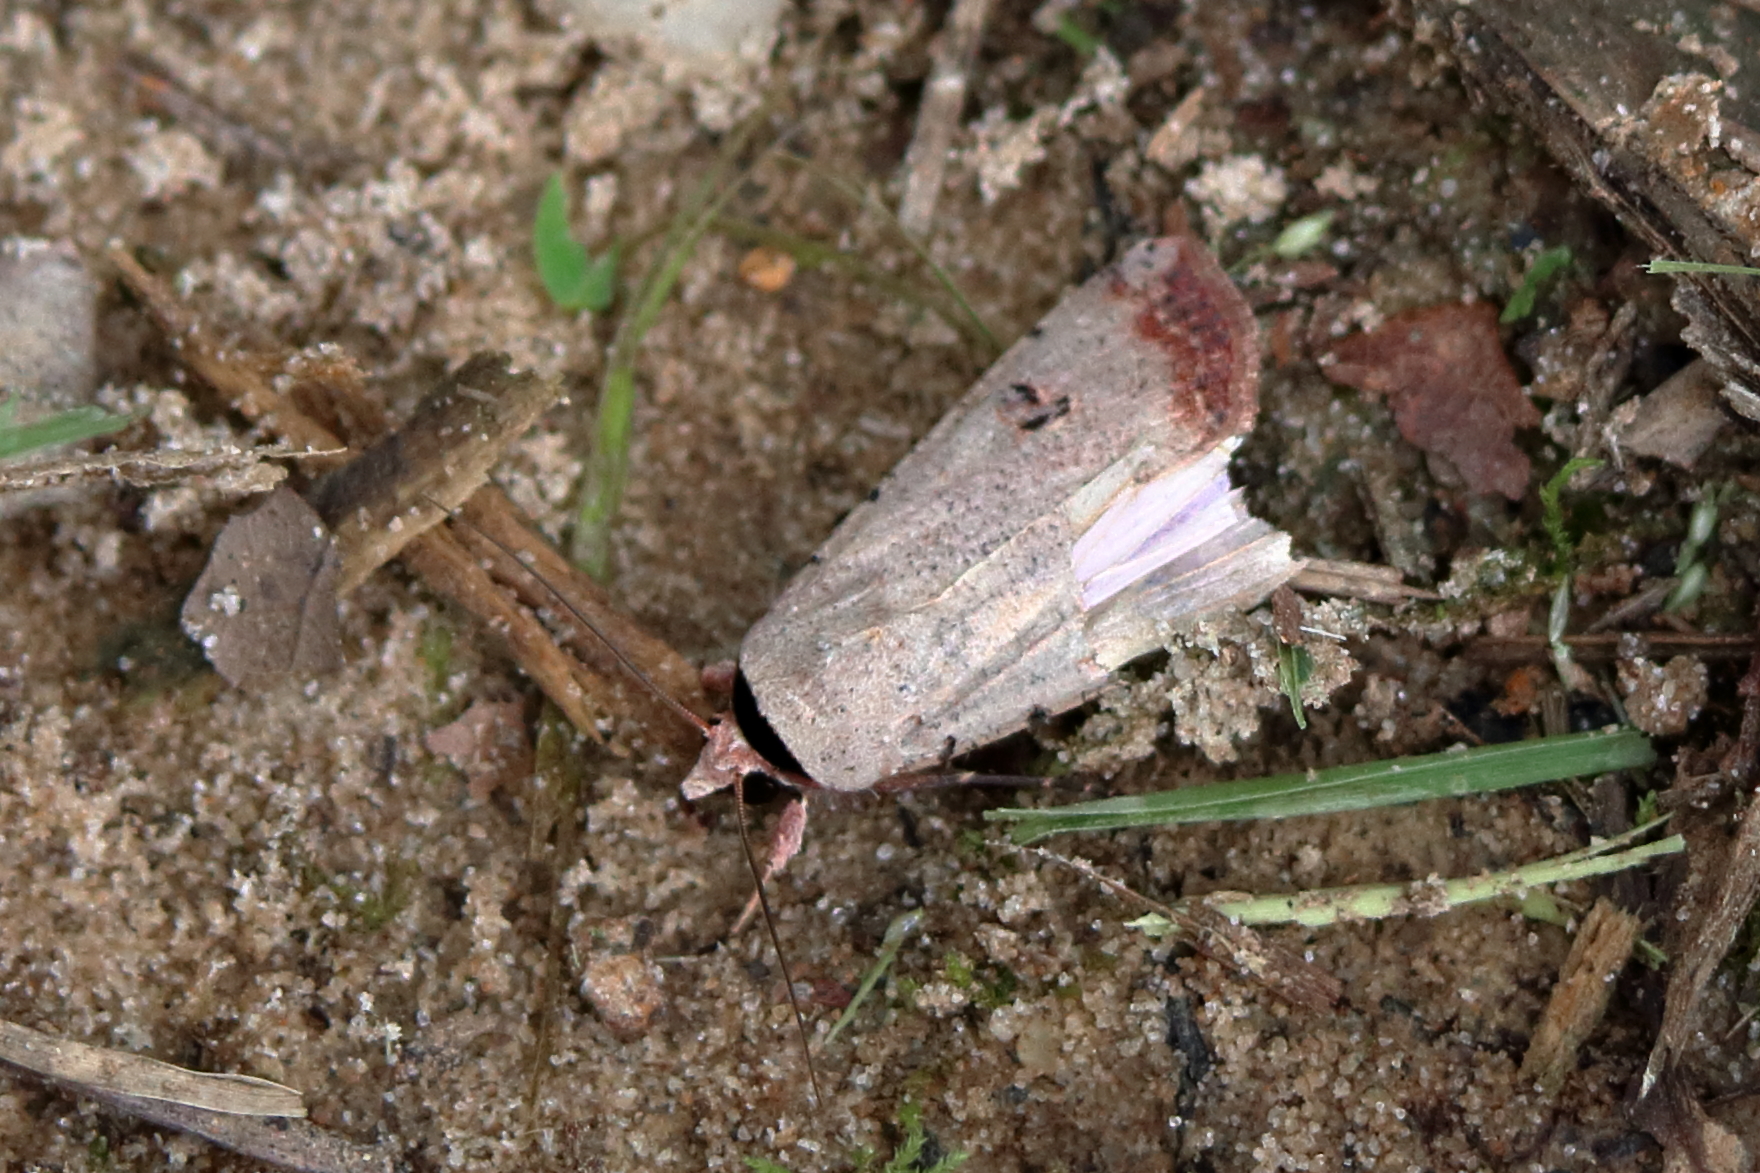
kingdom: Animalia
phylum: Arthropoda
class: Insecta
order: Lepidoptera
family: Noctuidae
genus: Anicla
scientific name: Anicla infecta
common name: Green cutworm
